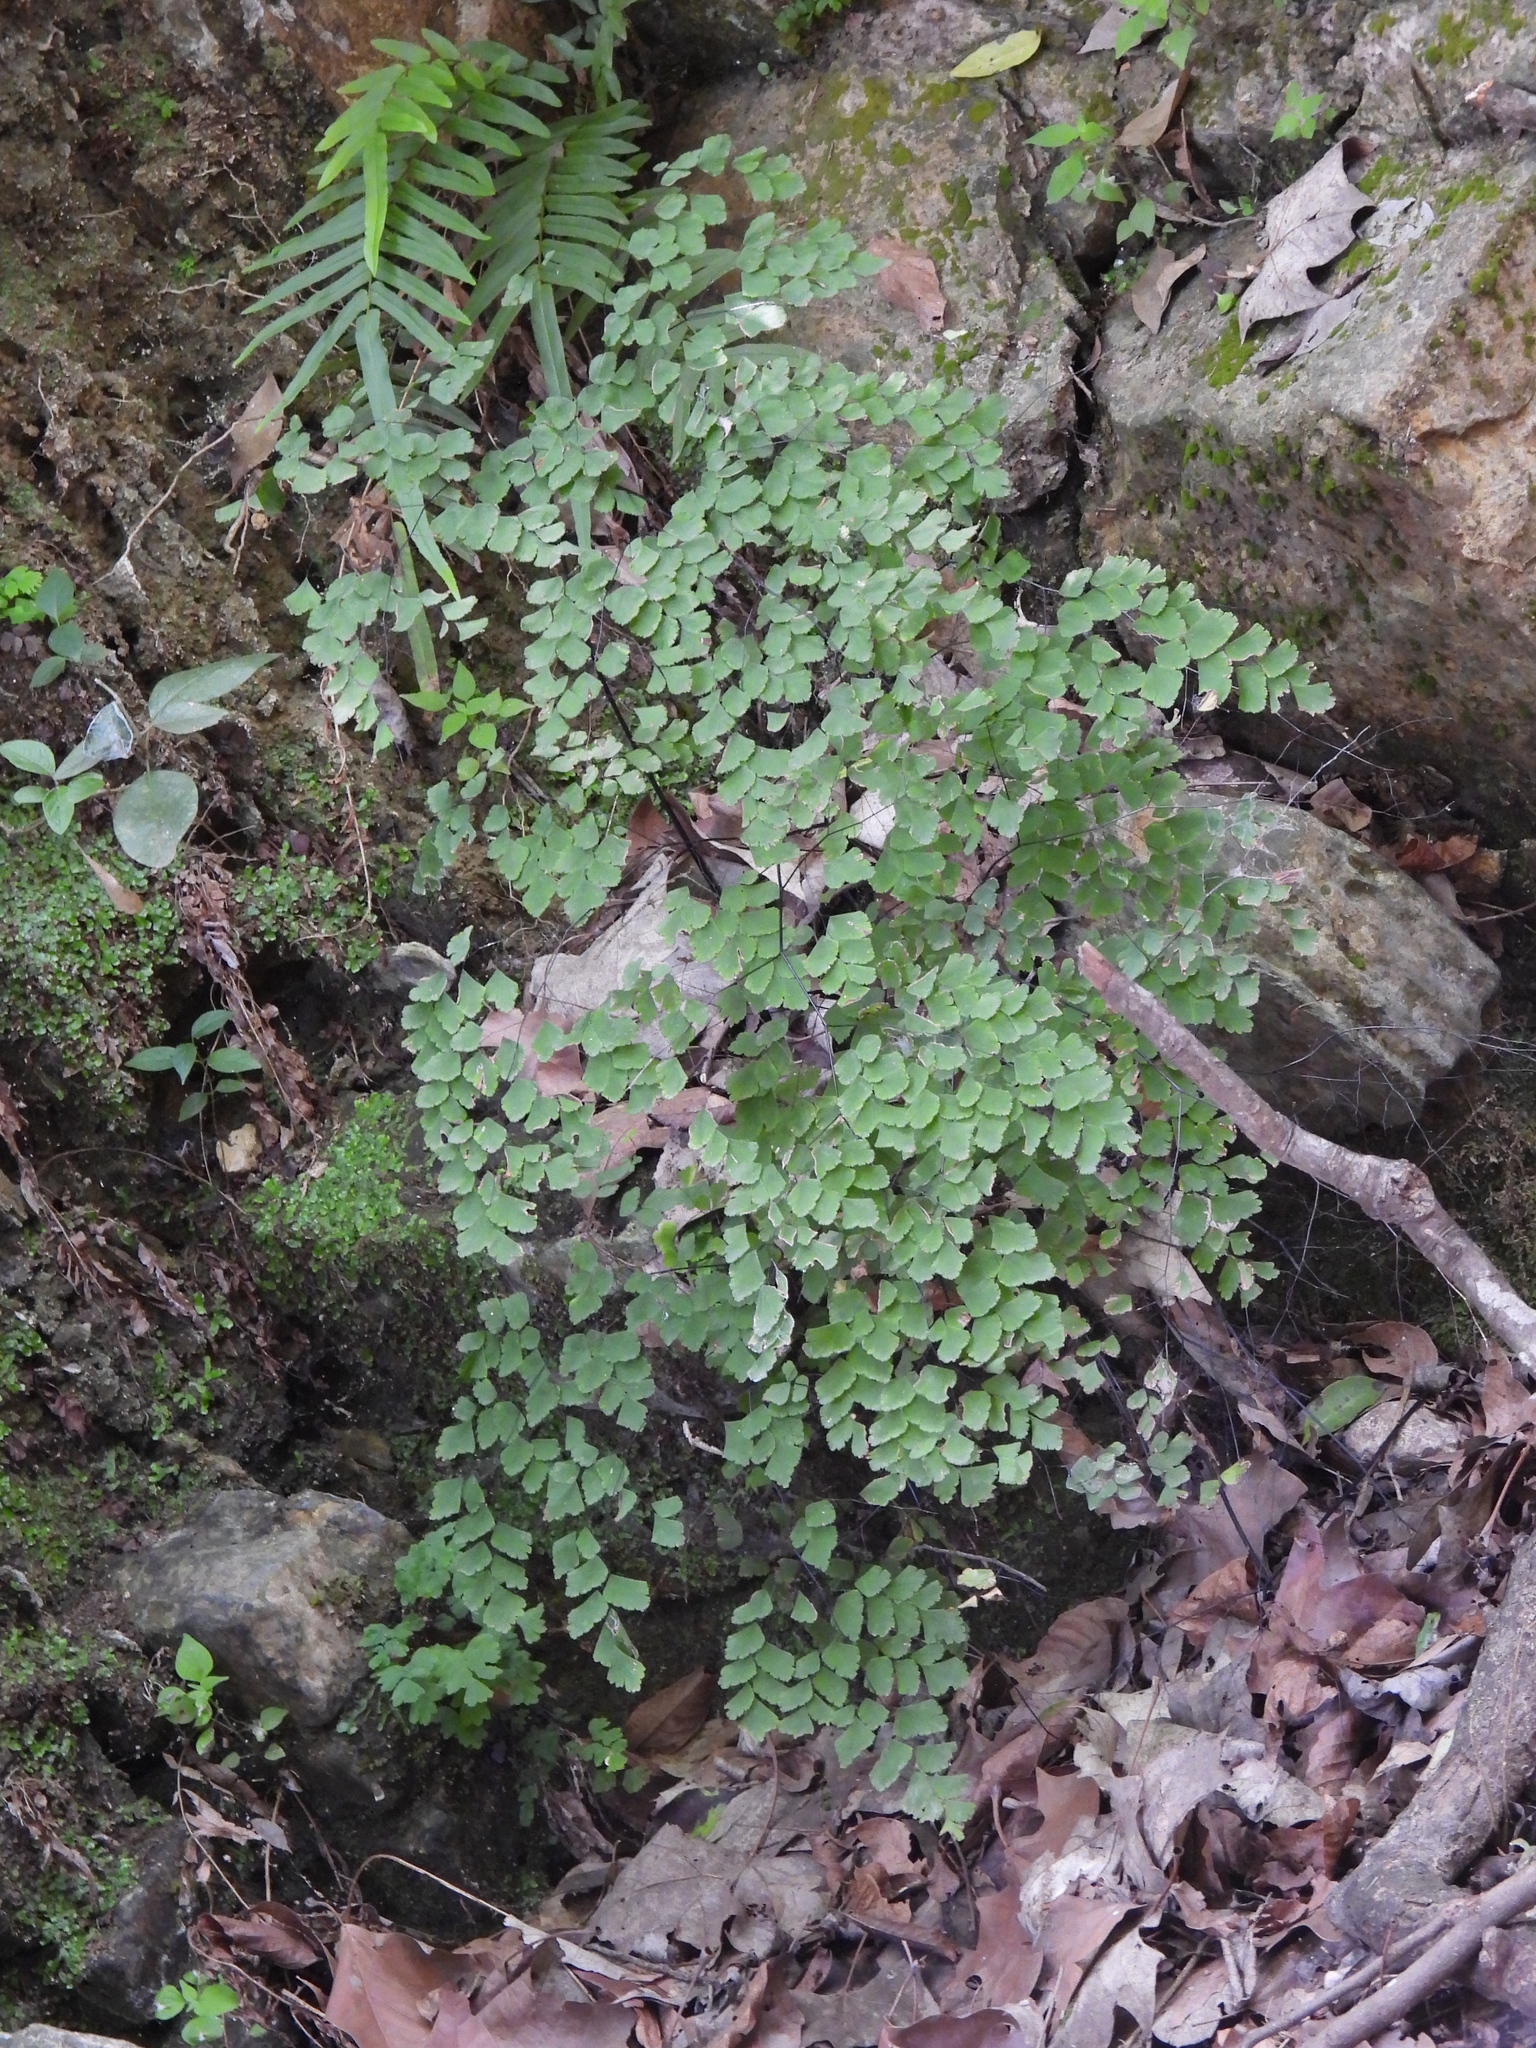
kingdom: Plantae
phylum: Tracheophyta
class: Polypodiopsida
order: Polypodiales
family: Pteridaceae
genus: Adiantum
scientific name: Adiantum andicola
